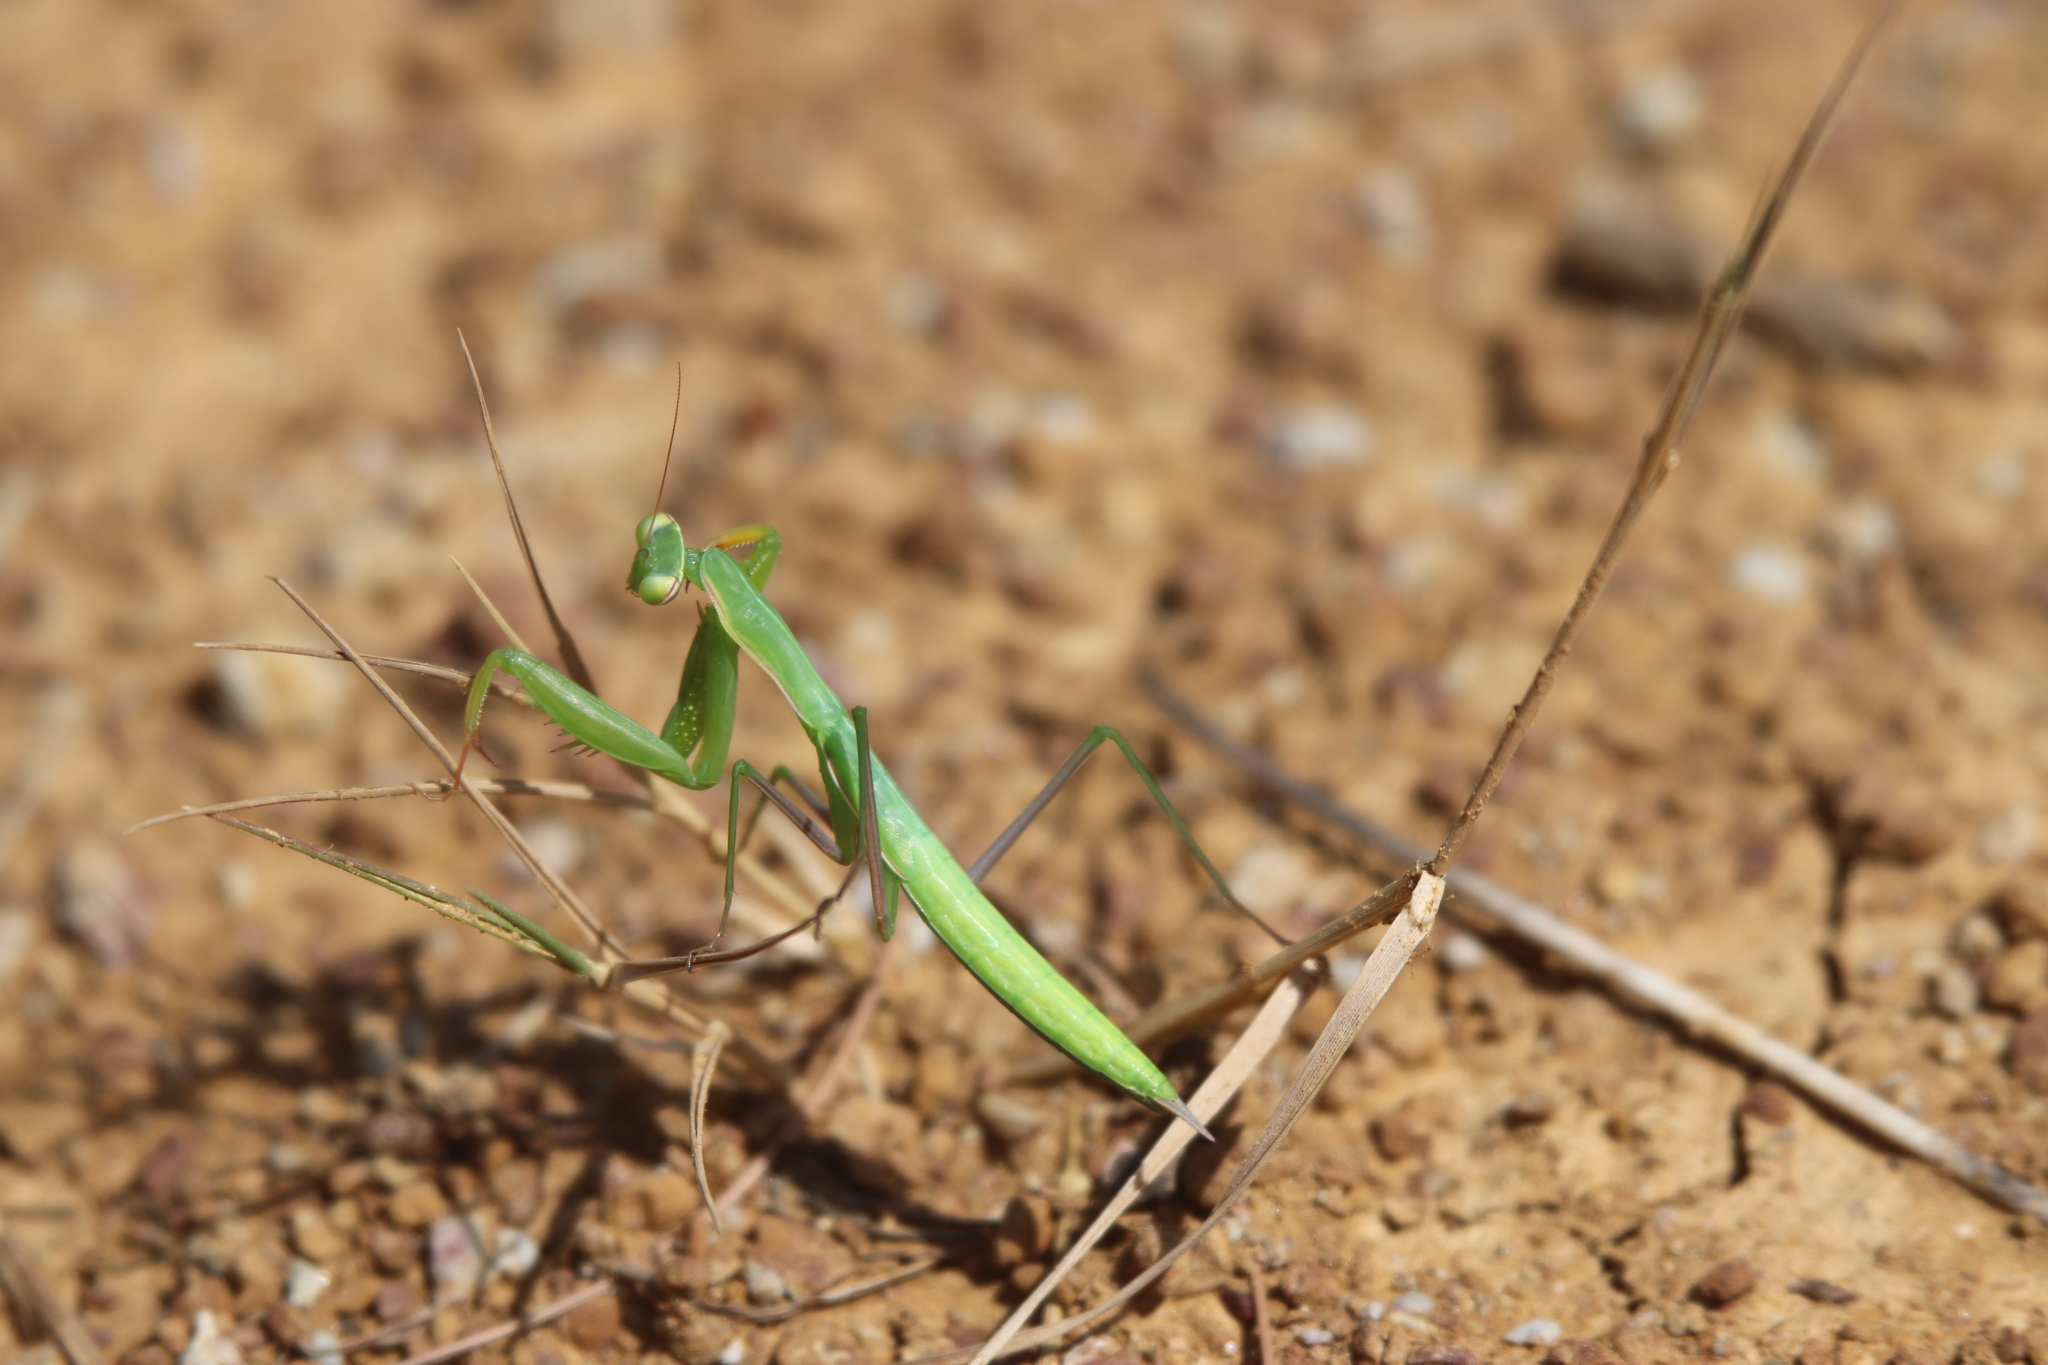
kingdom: Animalia
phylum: Arthropoda
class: Insecta
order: Mantodea
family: Mantidae
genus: Mantis
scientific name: Mantis religiosa
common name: Praying mantis
